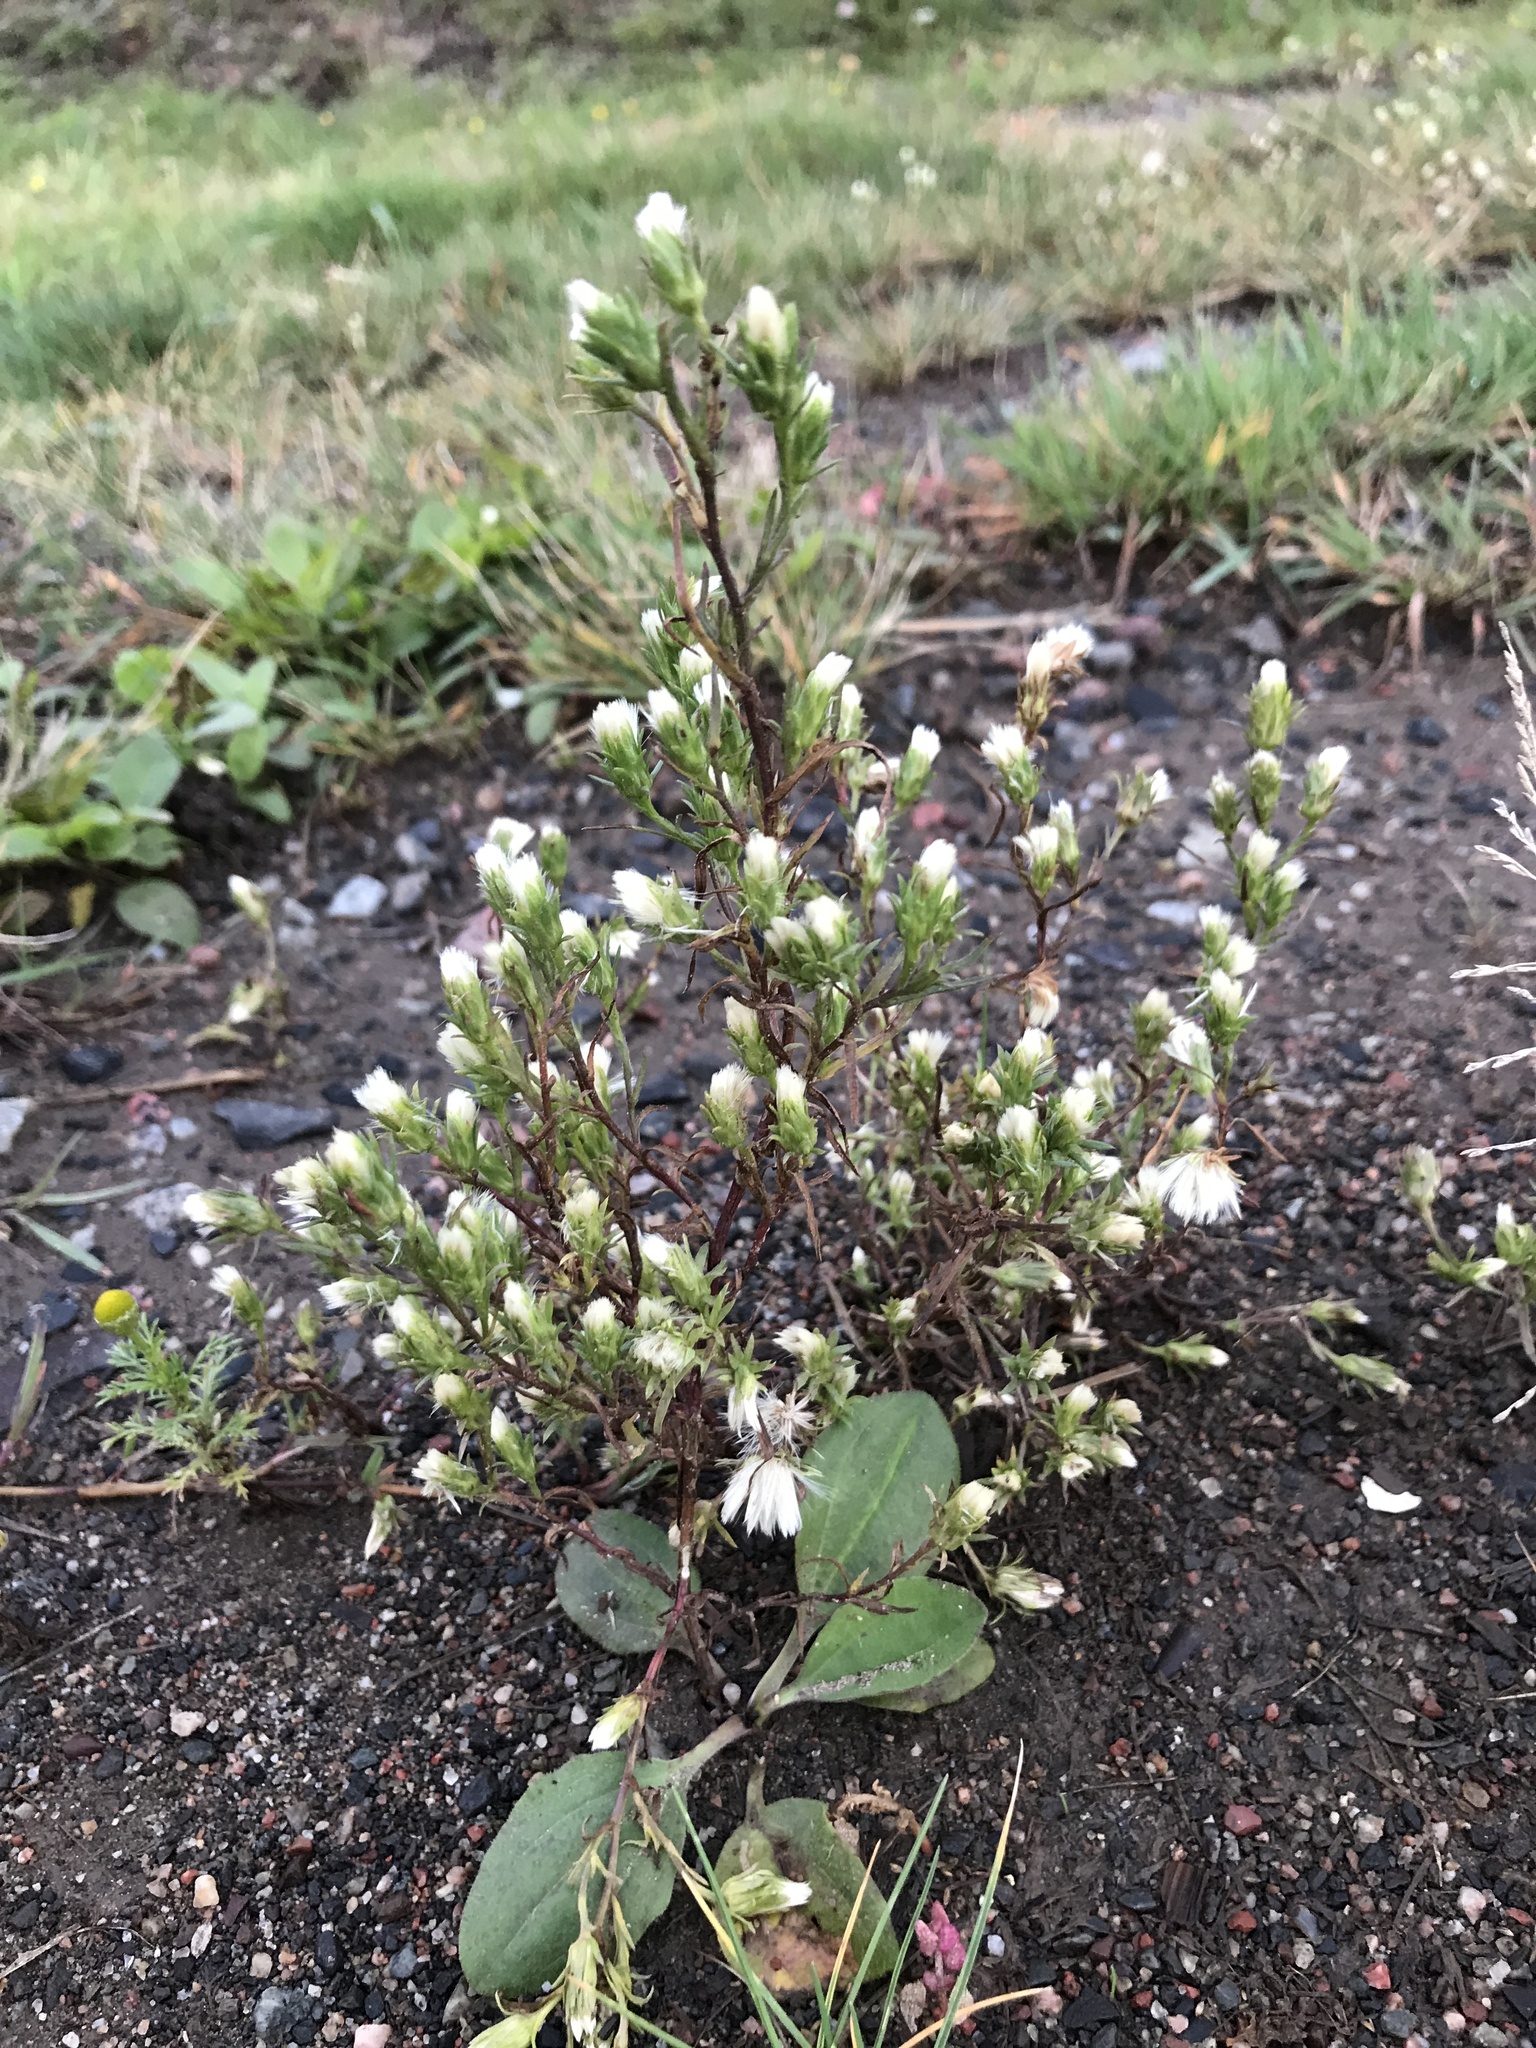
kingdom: Plantae
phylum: Tracheophyta
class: Magnoliopsida
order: Asterales
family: Asteraceae
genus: Symphyotrichum
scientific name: Symphyotrichum ciliatum
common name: Rayless annual aster
